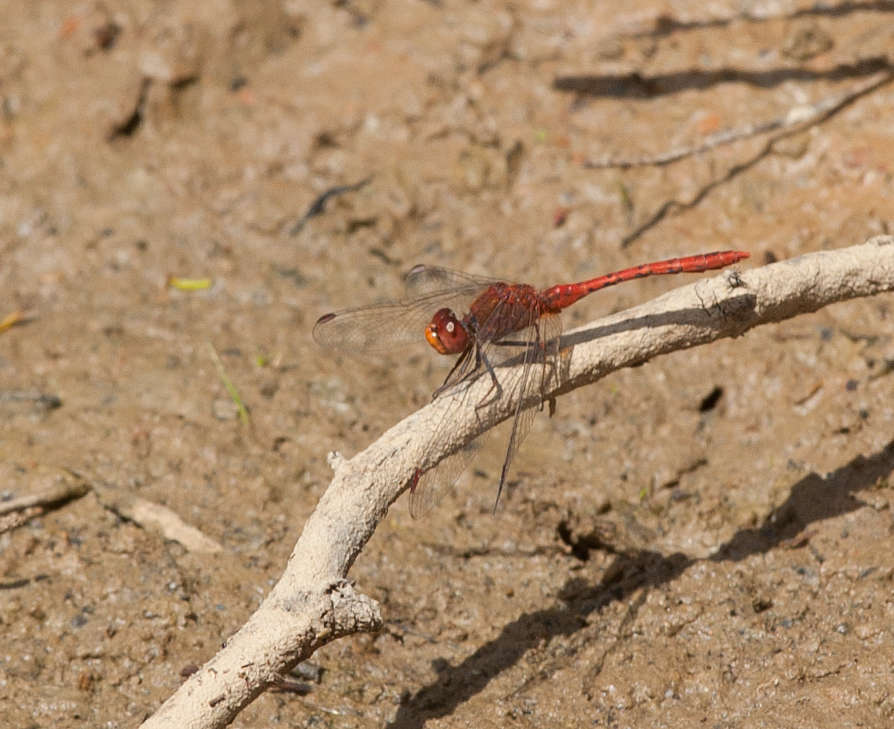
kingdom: Animalia
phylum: Arthropoda
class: Insecta
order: Odonata
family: Libellulidae
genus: Diplacodes
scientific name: Diplacodes bipunctata
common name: Red percher dragonfly
